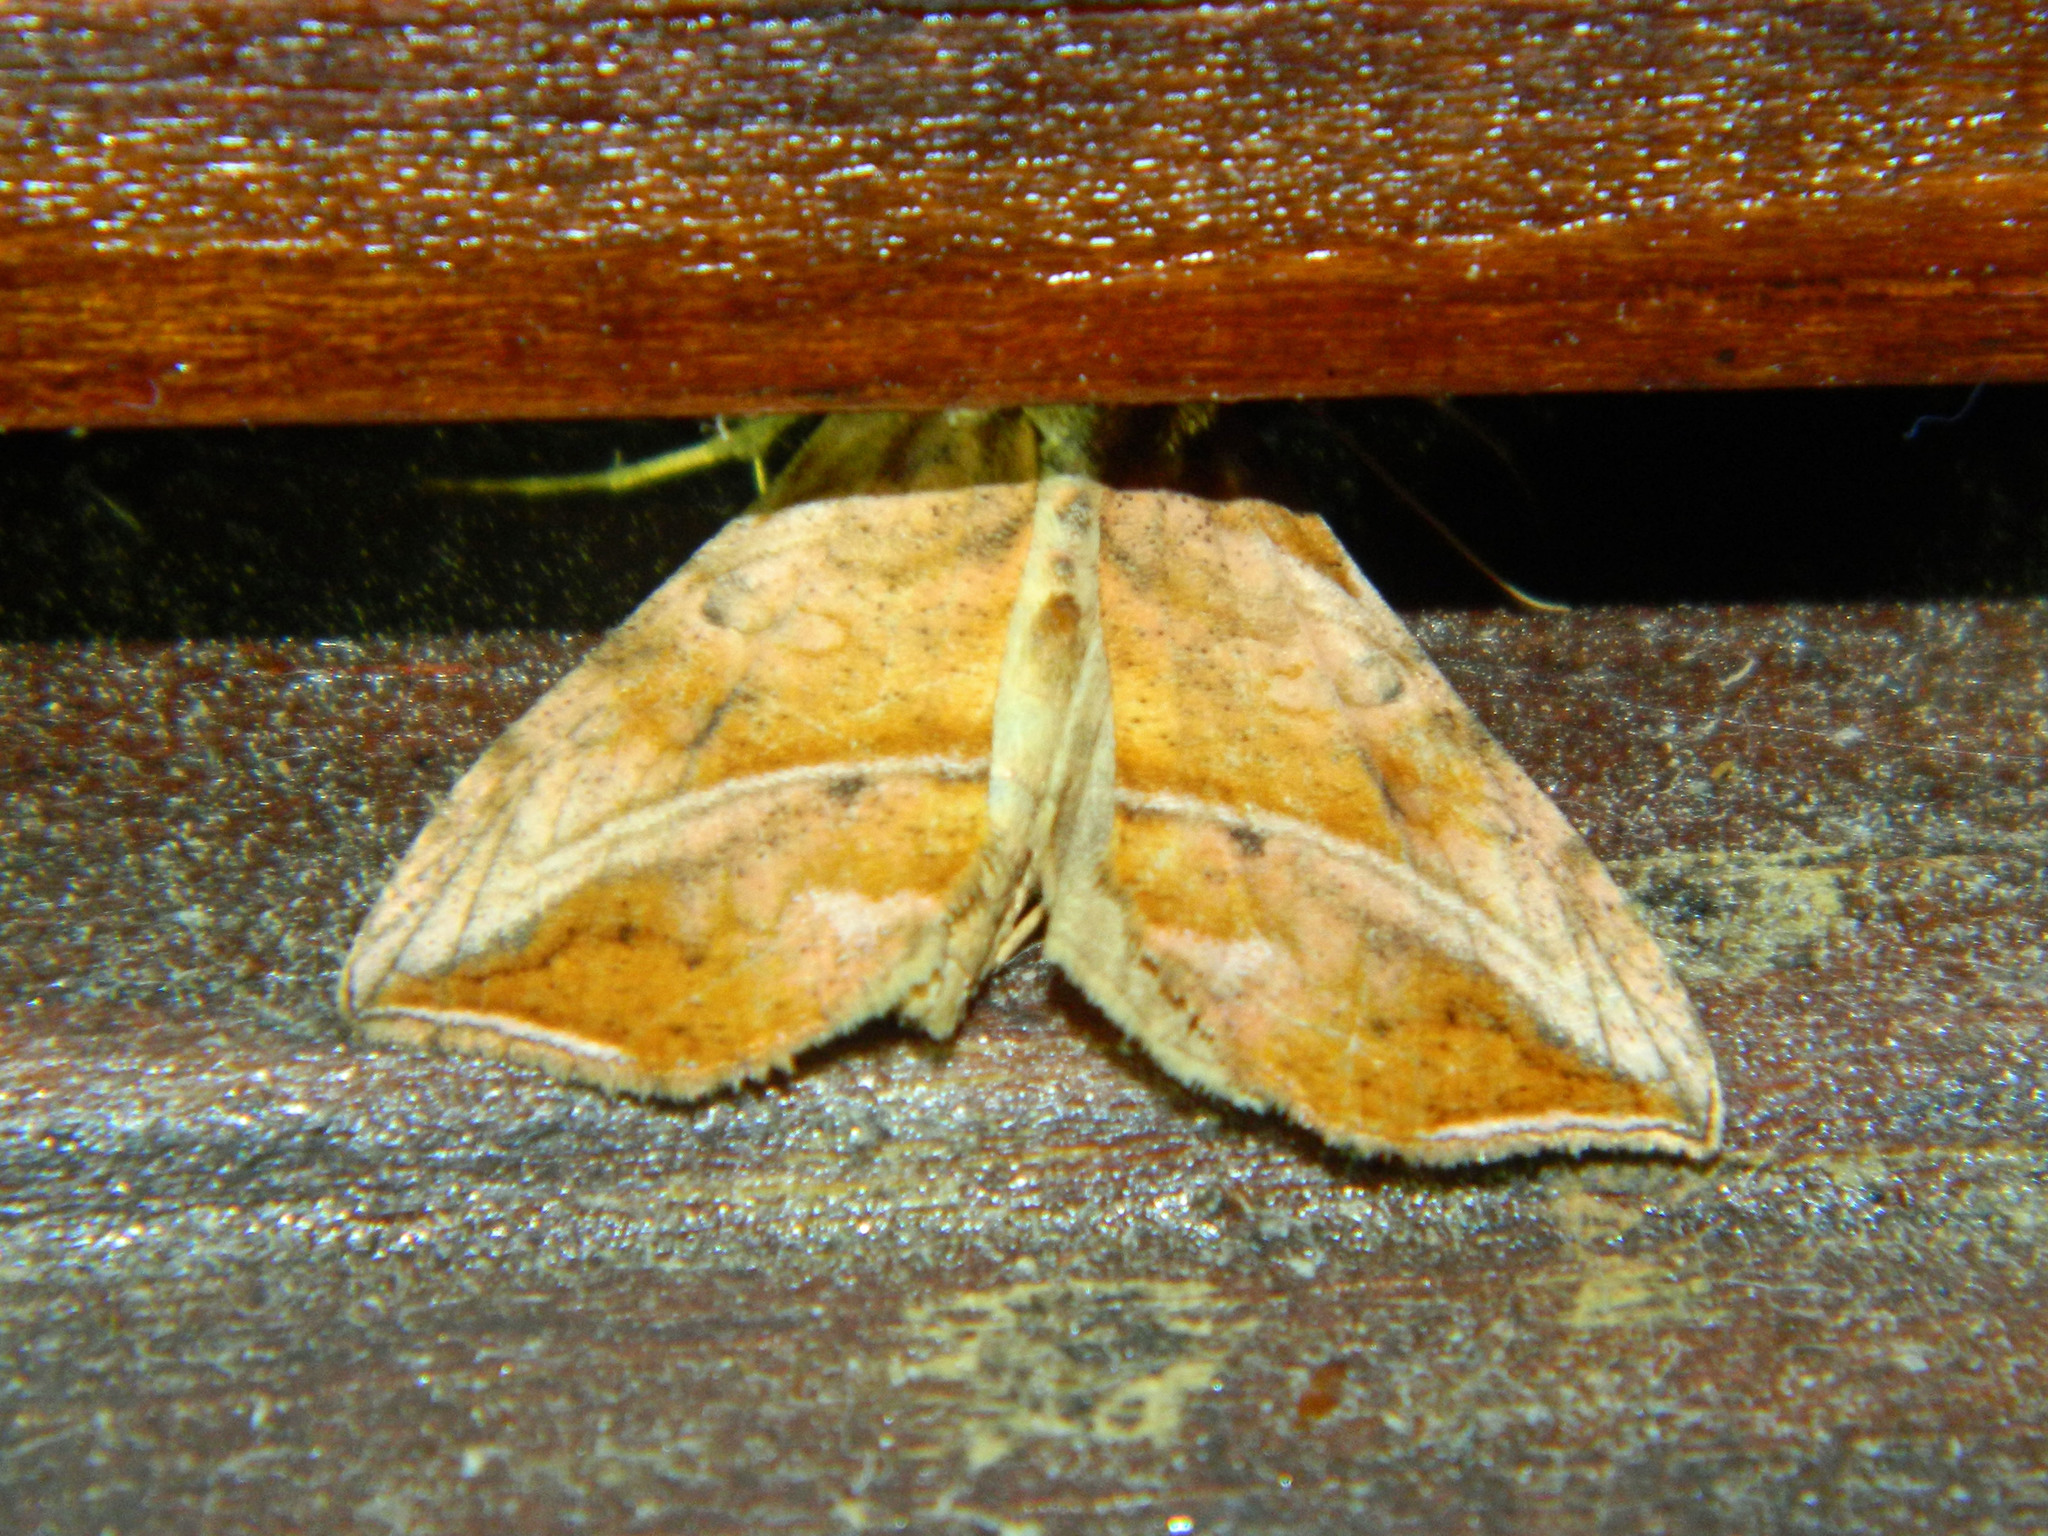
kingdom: Animalia
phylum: Arthropoda
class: Insecta
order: Lepidoptera
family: Noctuidae
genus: Pseudeva
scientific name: Pseudeva purpurigera
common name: Straight-lined looper moth
